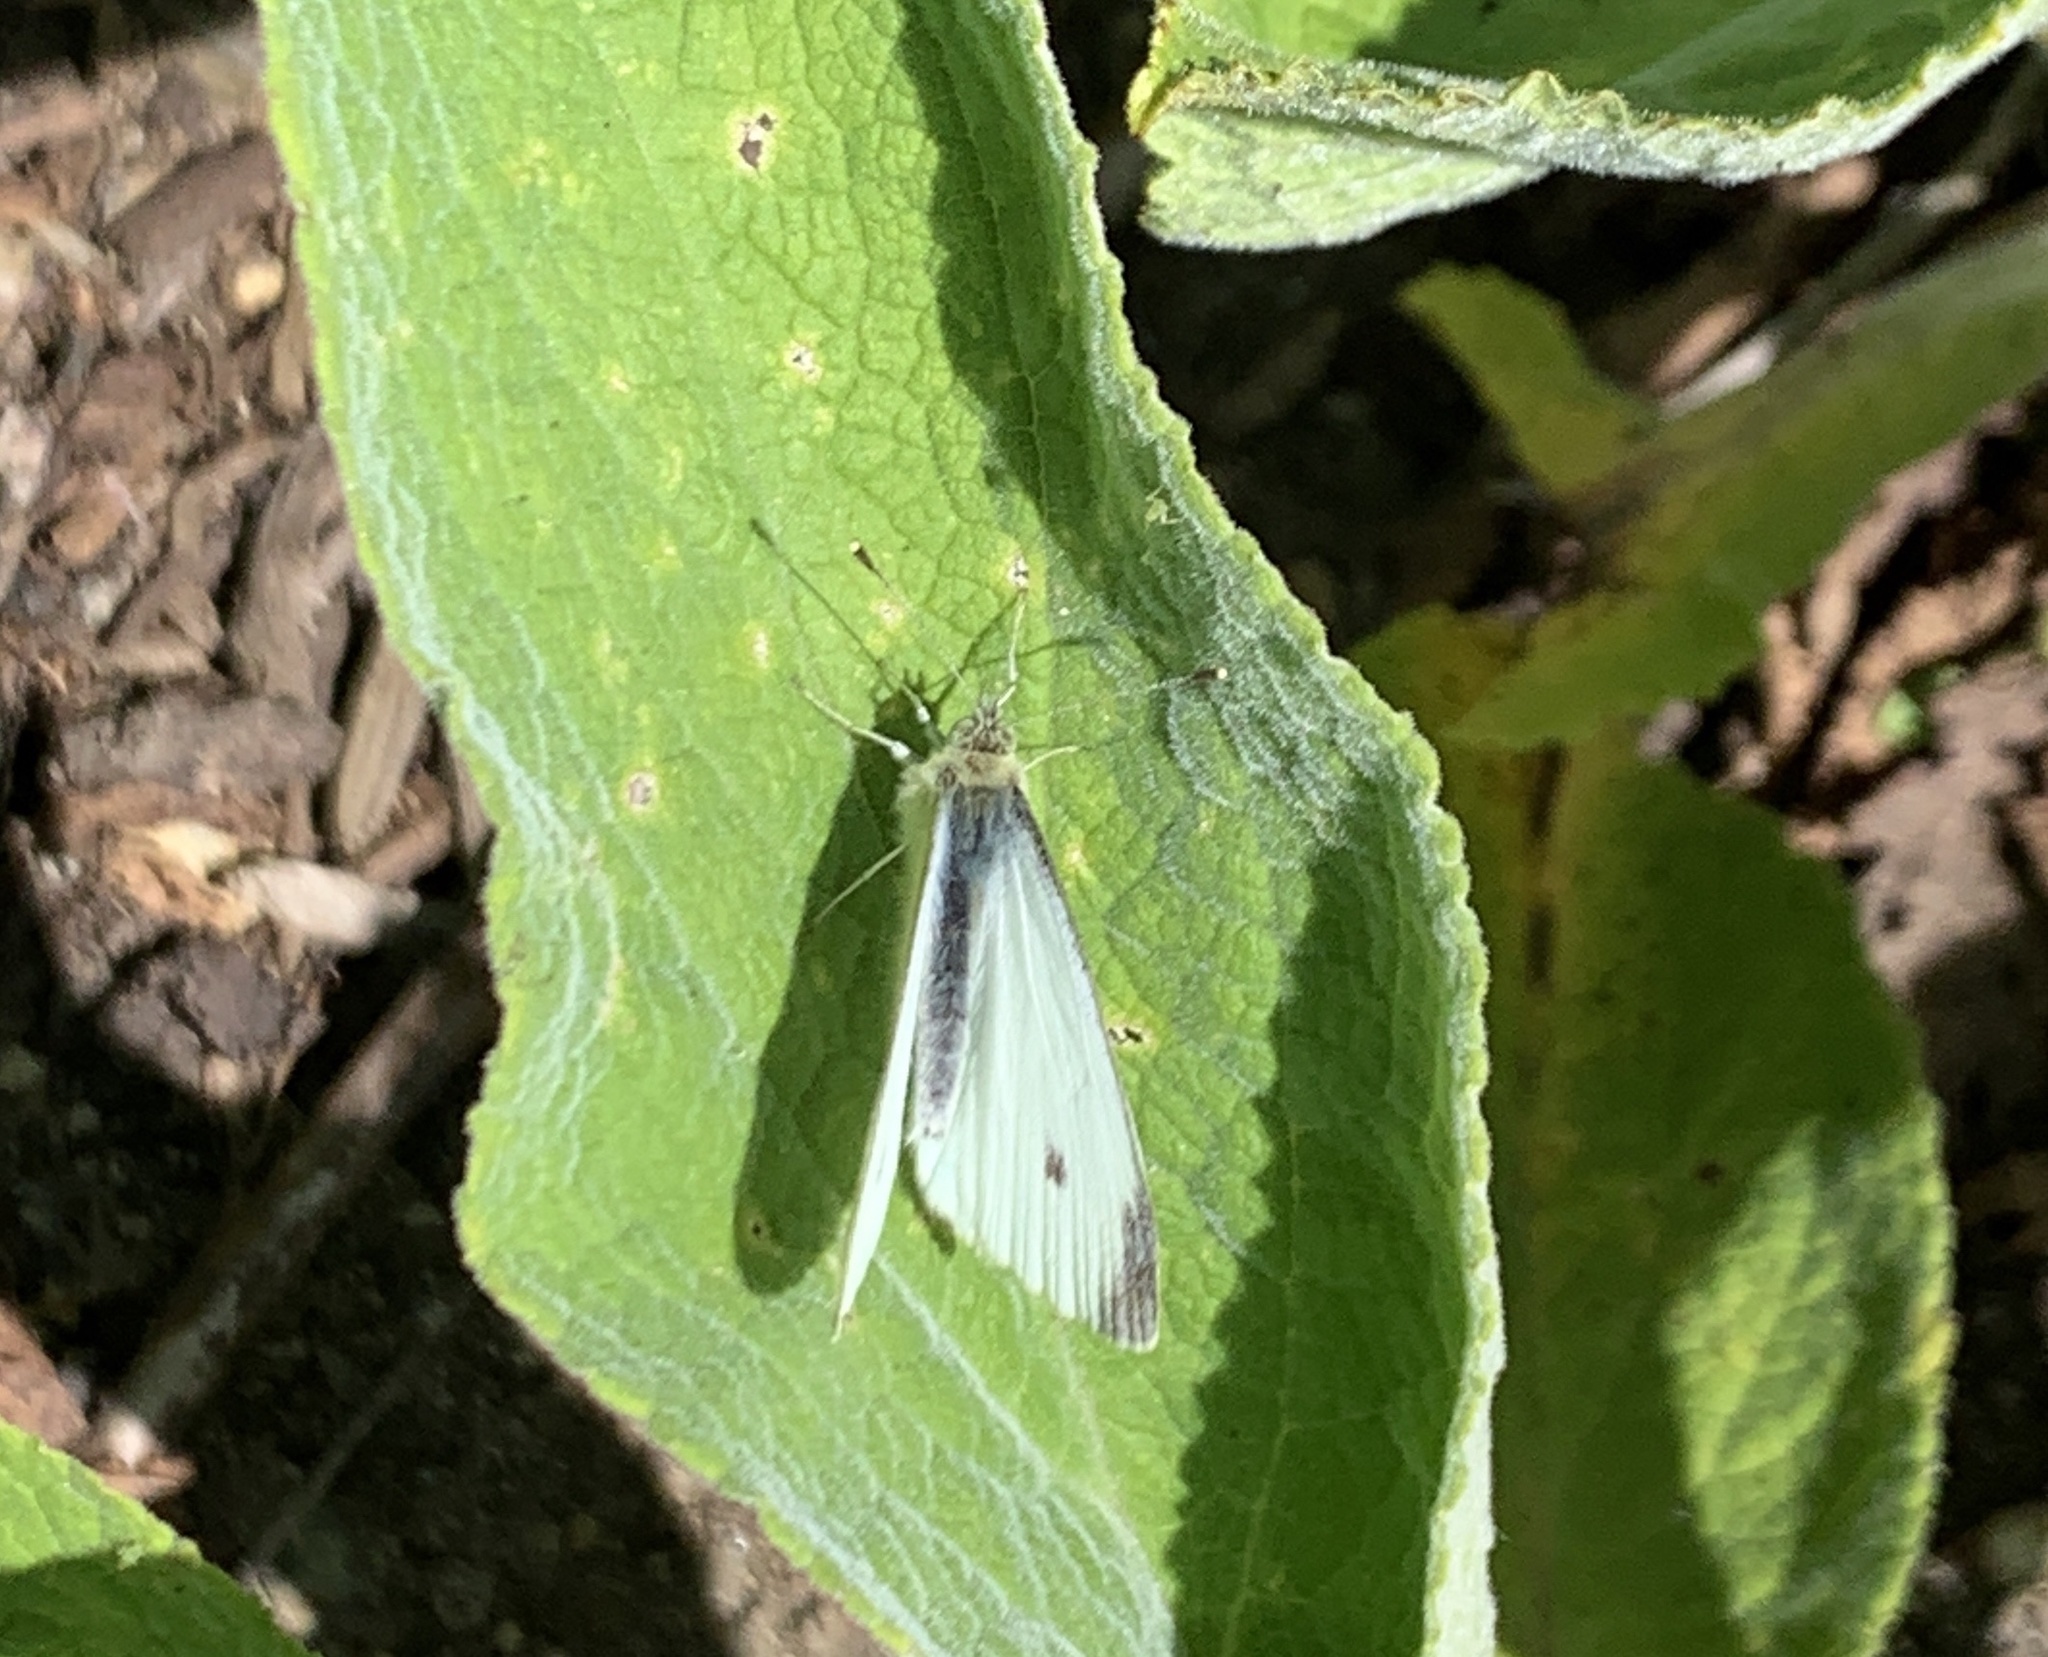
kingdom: Animalia
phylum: Arthropoda
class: Insecta
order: Lepidoptera
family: Pieridae
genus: Pieris
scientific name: Pieris rapae
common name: Small white
